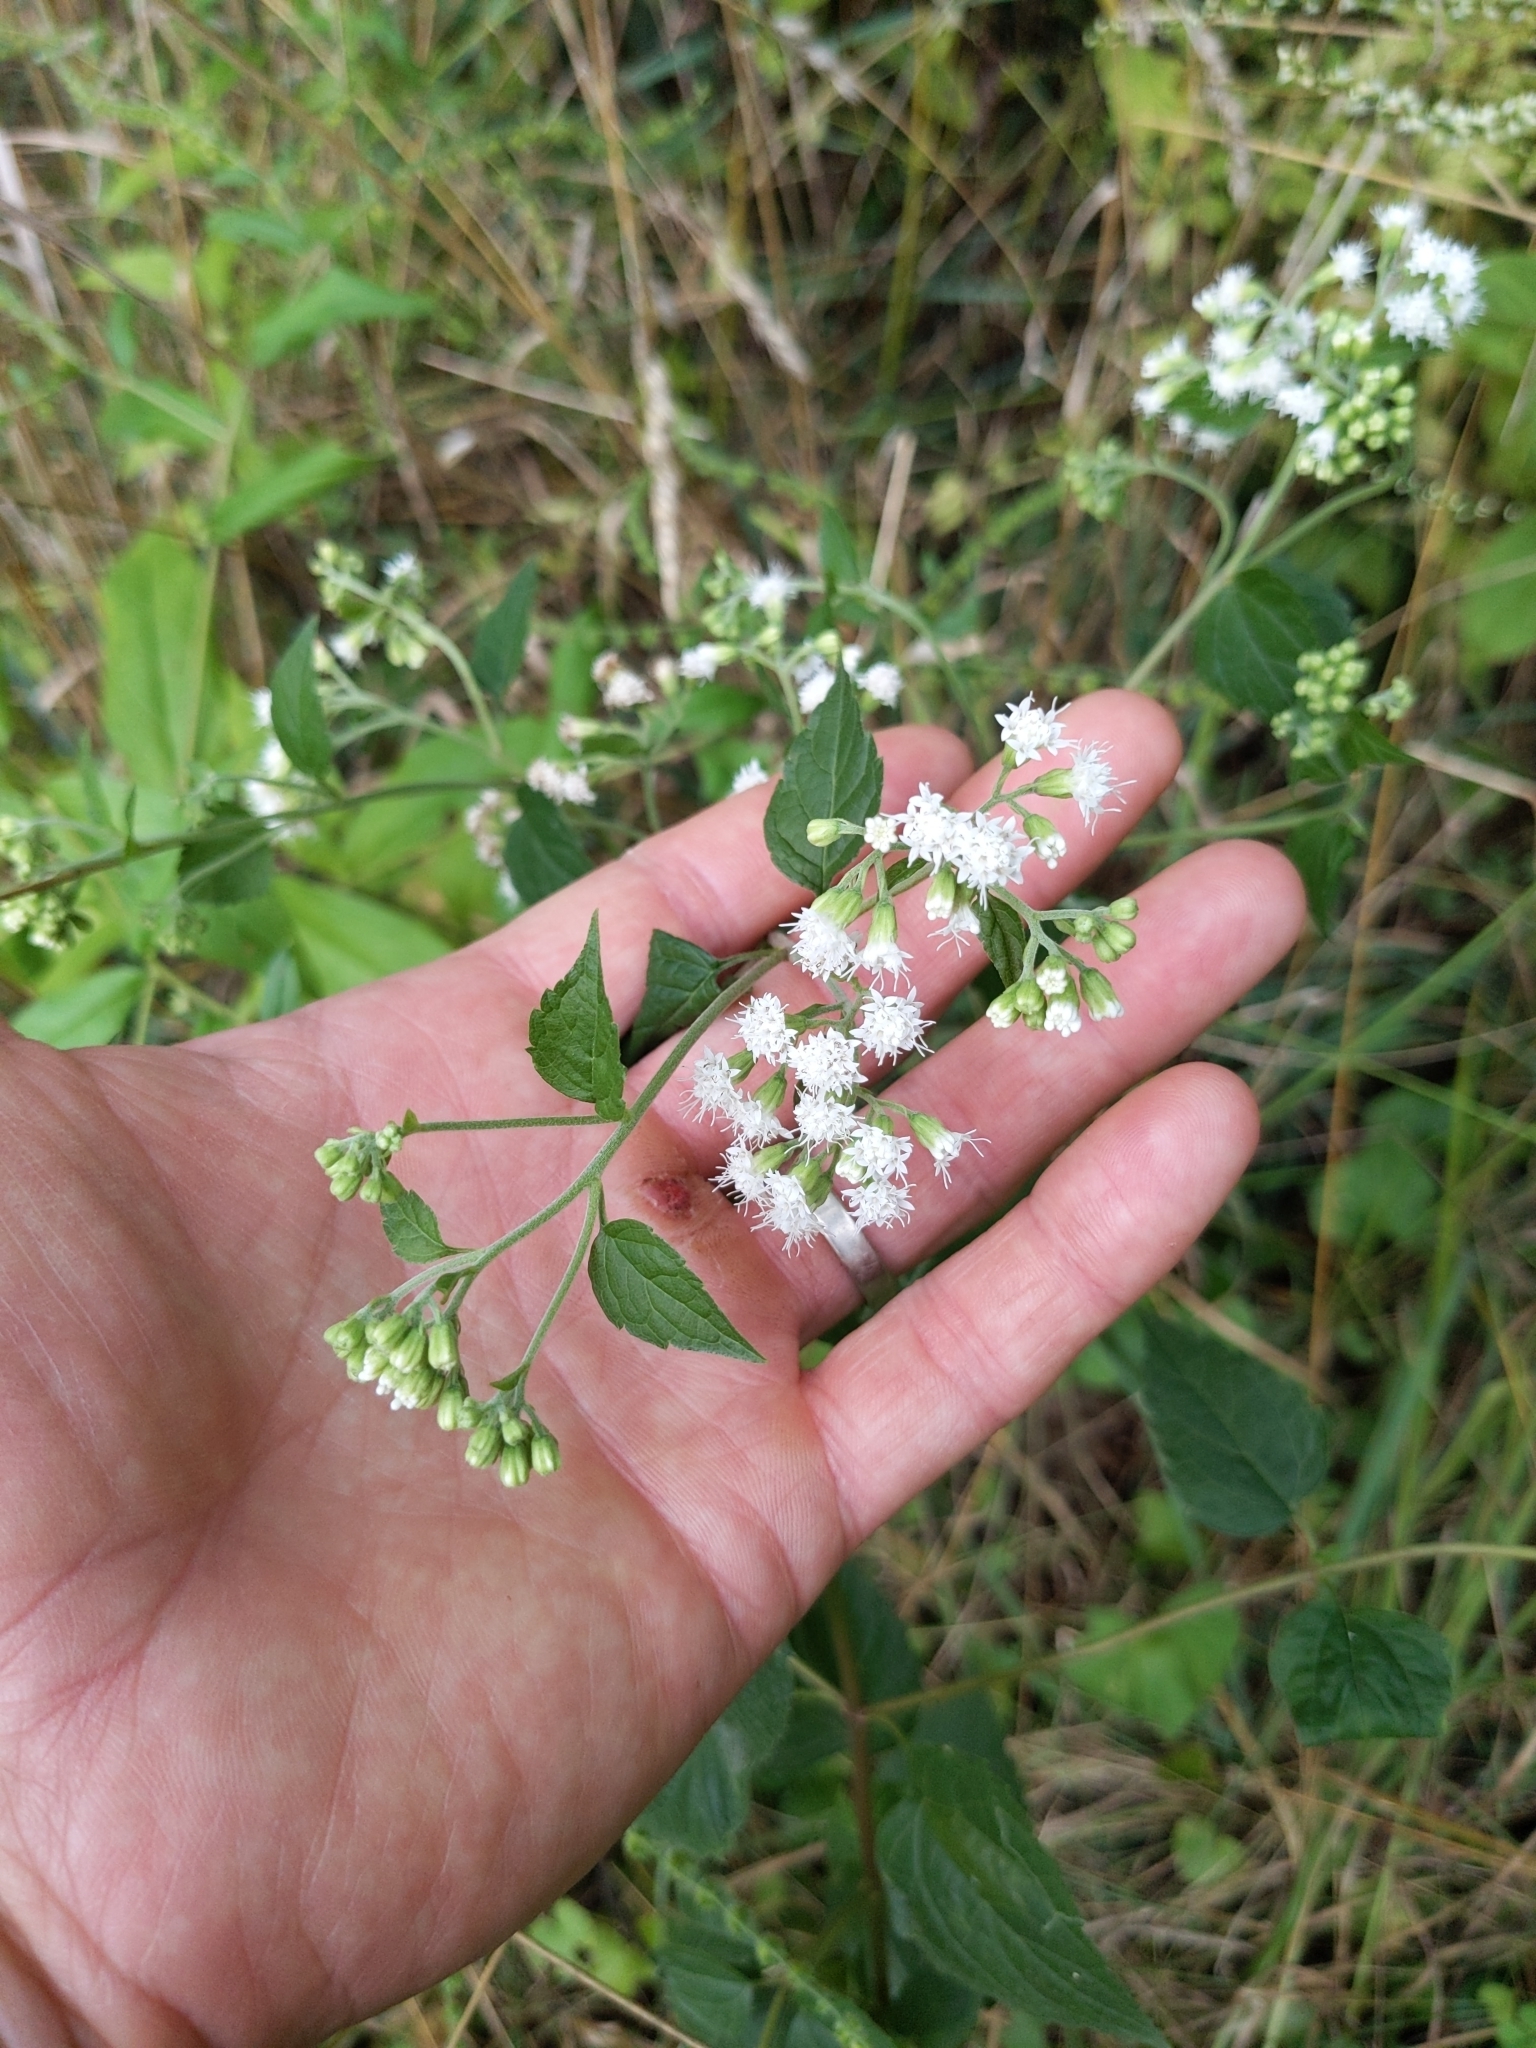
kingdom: Plantae
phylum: Tracheophyta
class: Magnoliopsida
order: Asterales
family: Asteraceae
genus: Ageratina
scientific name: Ageratina altissima
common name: White snakeroot
